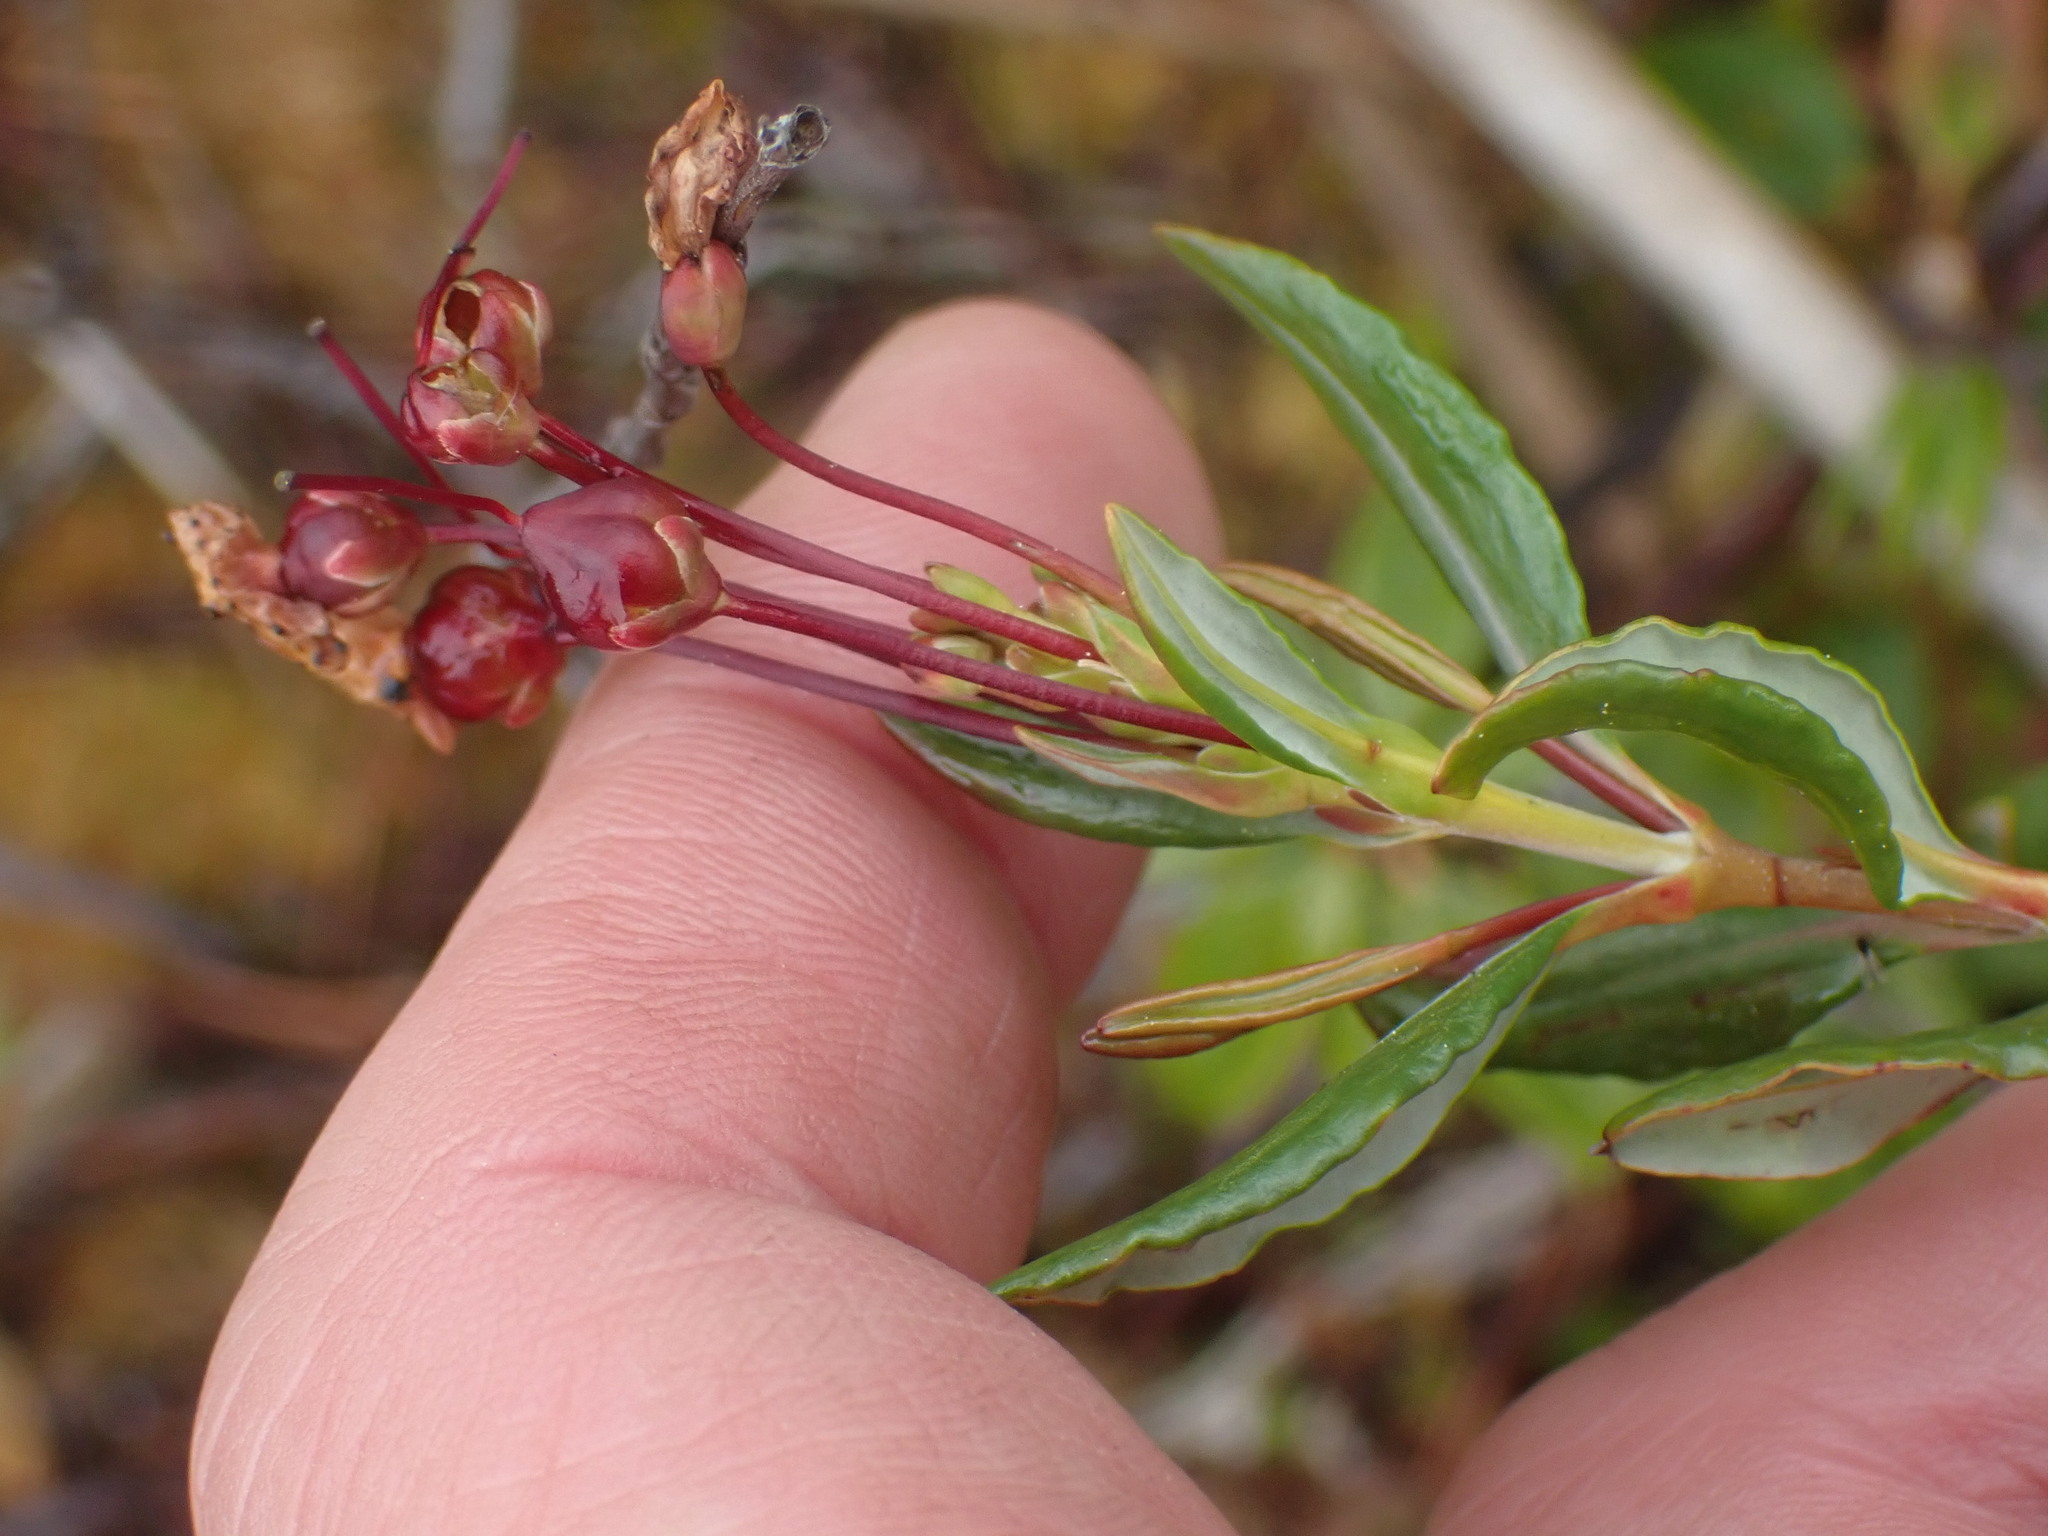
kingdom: Plantae
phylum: Tracheophyta
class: Magnoliopsida
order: Ericales
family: Ericaceae
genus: Kalmia
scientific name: Kalmia microphylla
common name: Alpine bog laurel
